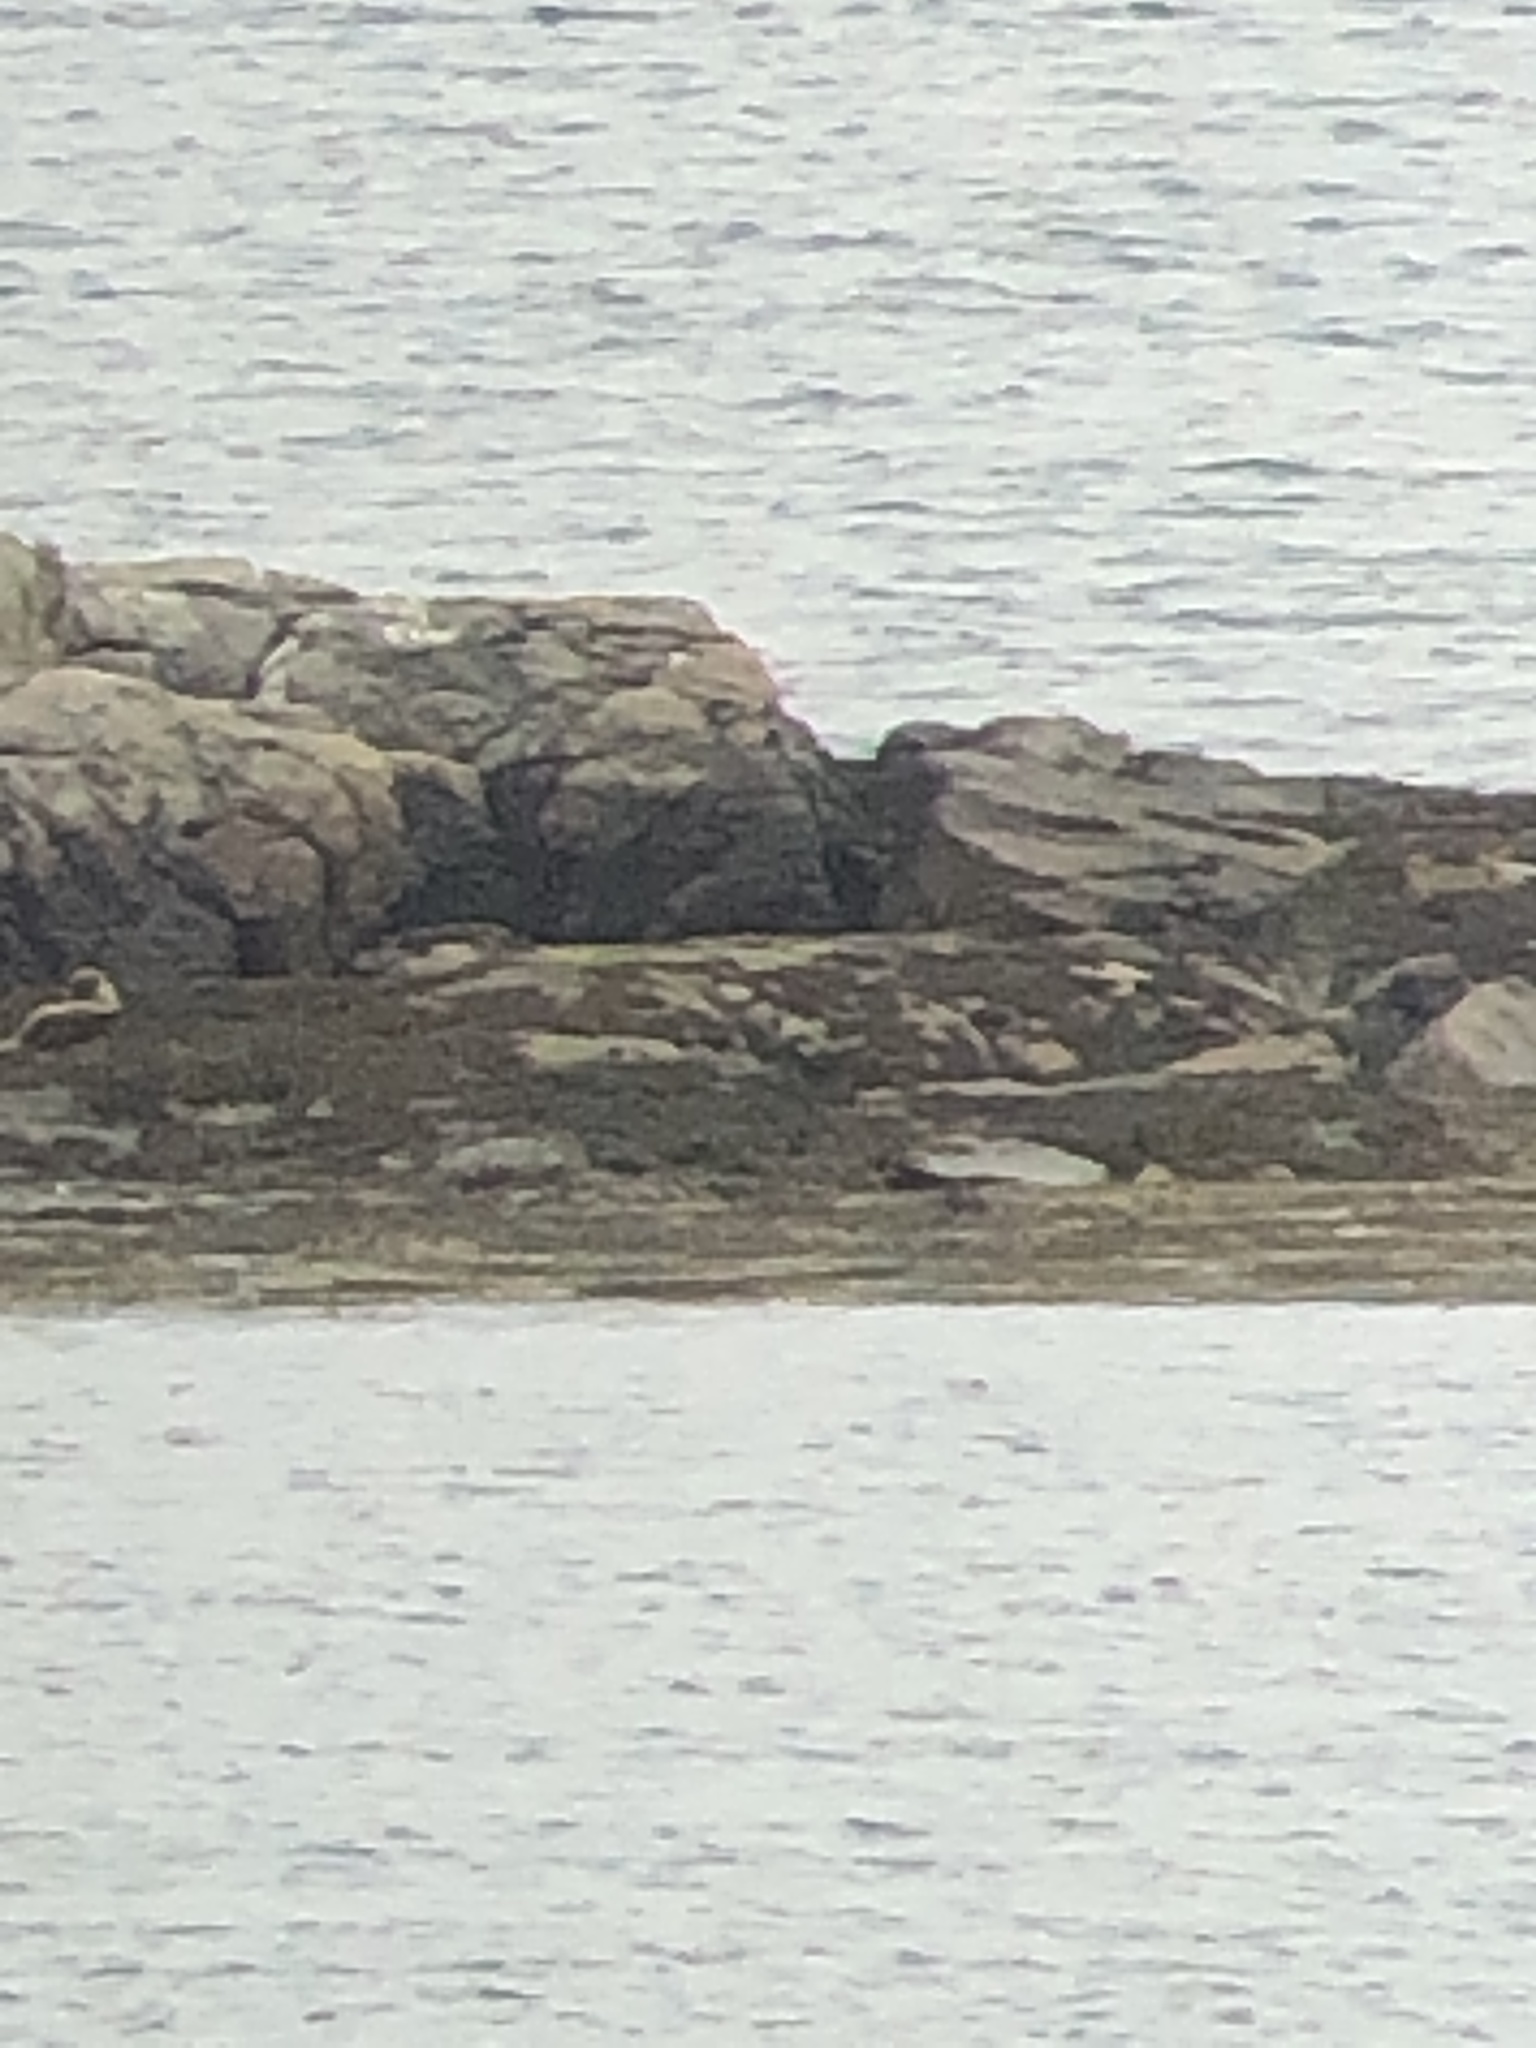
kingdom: Animalia
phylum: Chordata
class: Mammalia
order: Carnivora
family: Mustelidae
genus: Lutra
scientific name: Lutra lutra
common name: European otter
